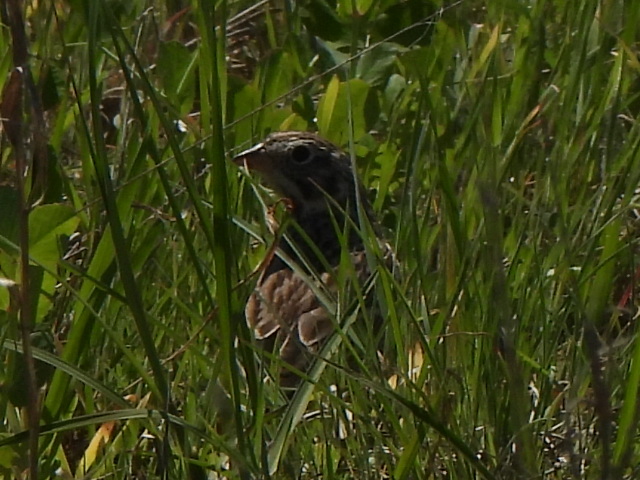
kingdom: Animalia
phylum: Chordata
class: Aves
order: Passeriformes
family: Passerellidae
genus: Pooecetes
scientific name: Pooecetes gramineus
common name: Vesper sparrow
